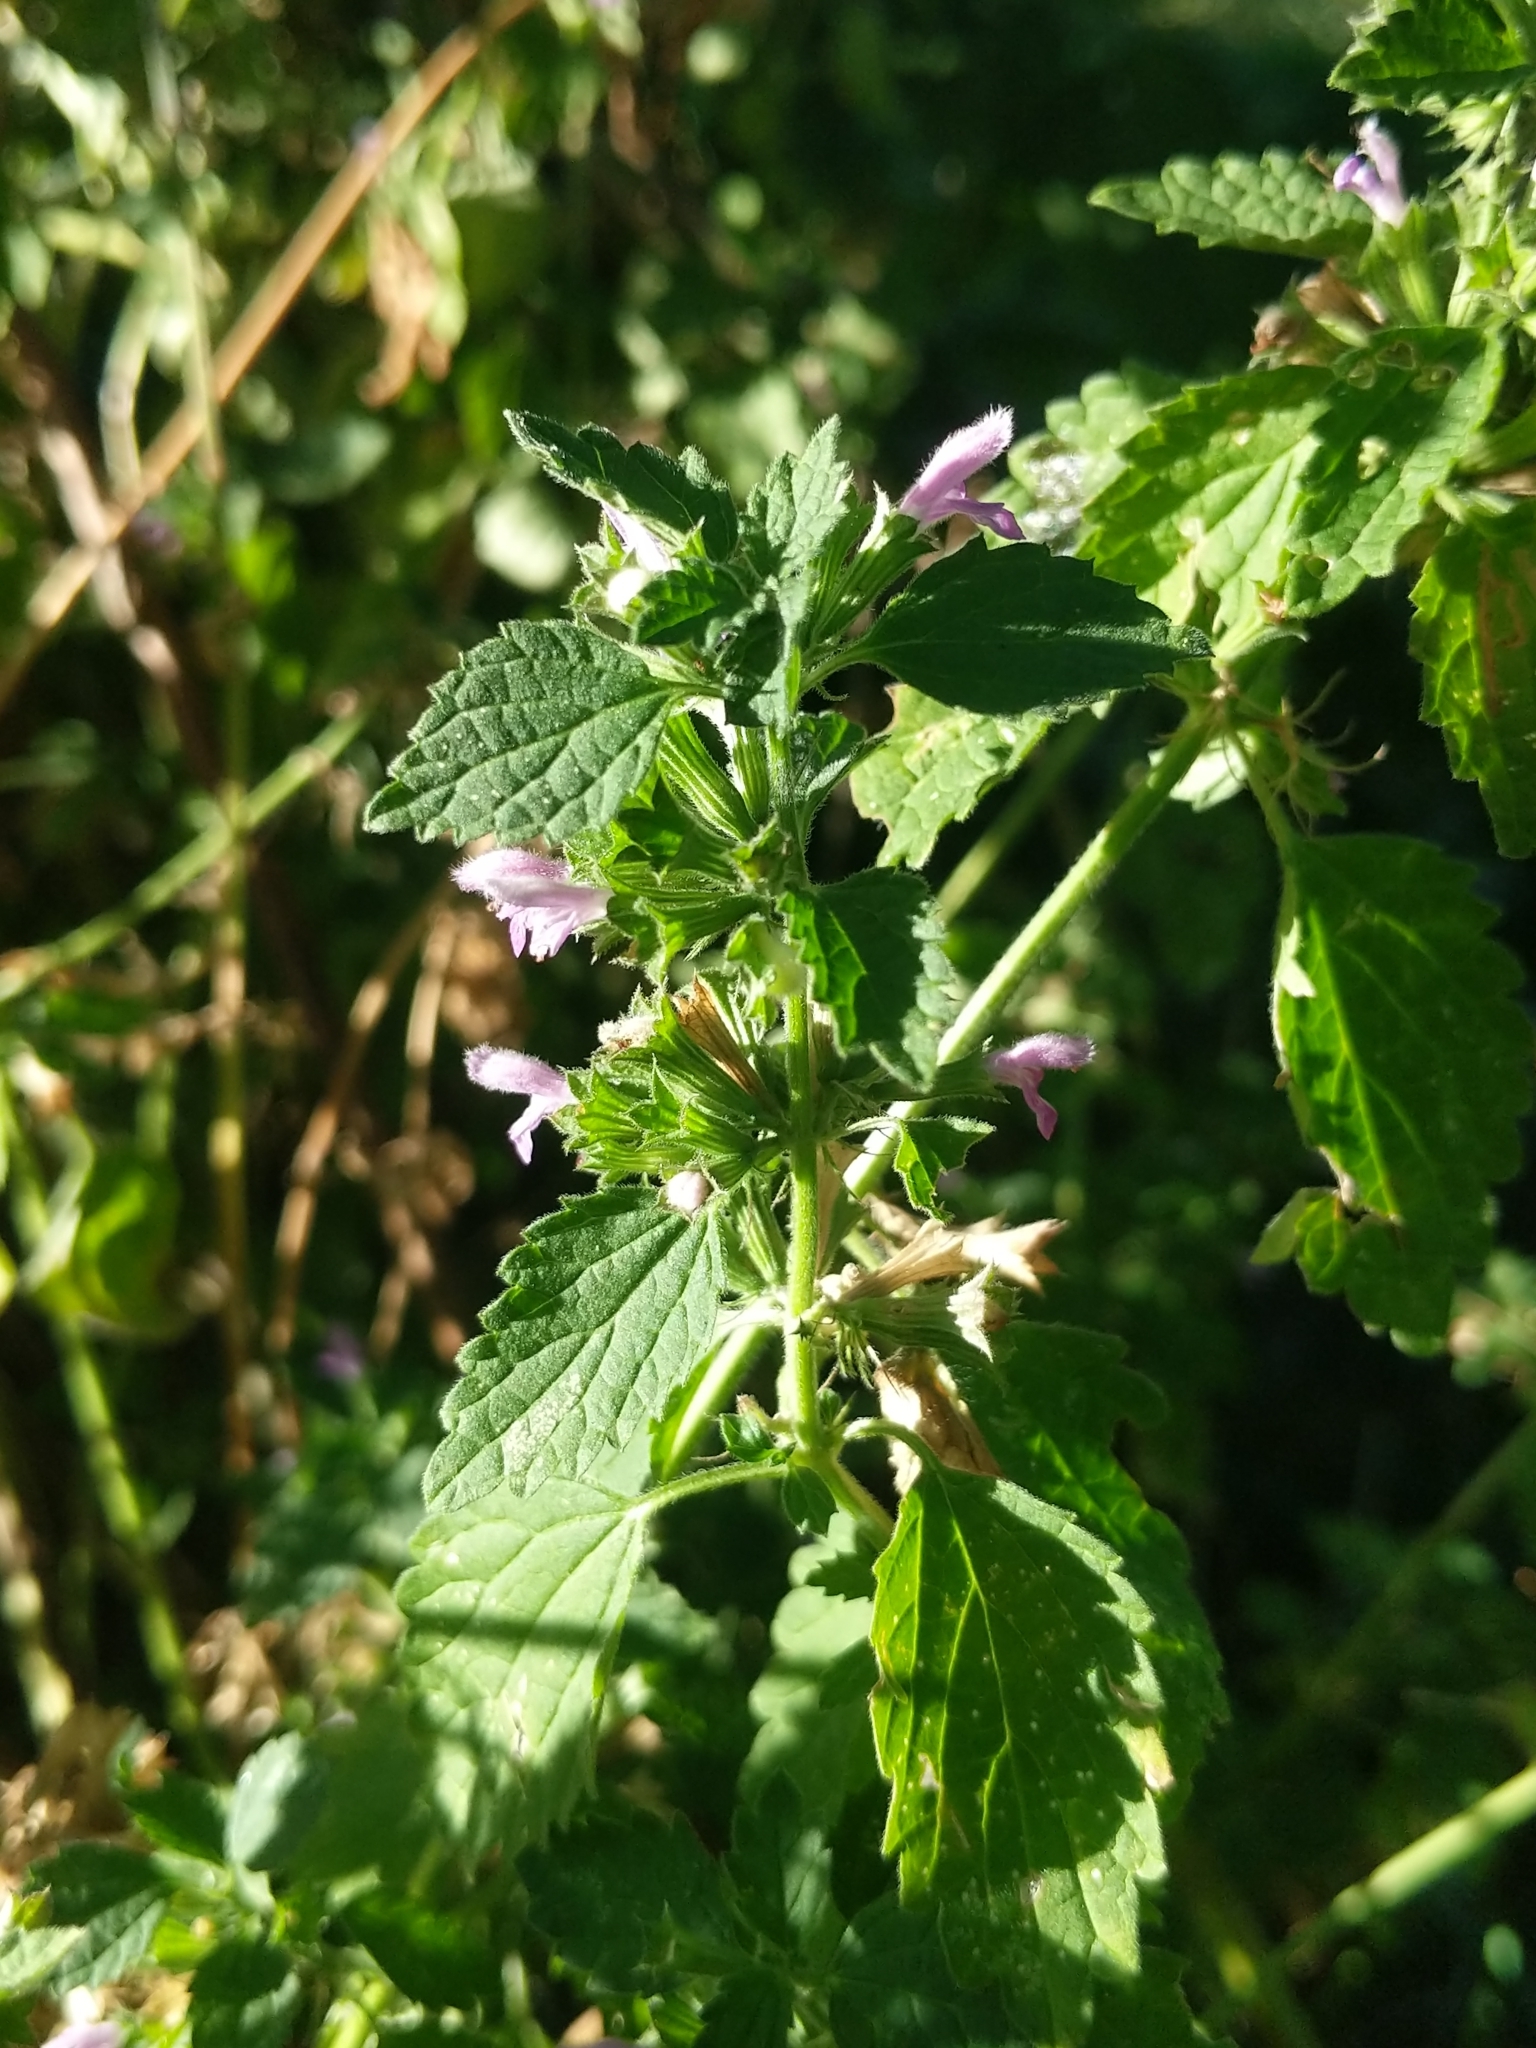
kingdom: Plantae
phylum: Tracheophyta
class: Magnoliopsida
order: Lamiales
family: Lamiaceae
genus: Ballota
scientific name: Ballota nigra
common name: Black horehound
